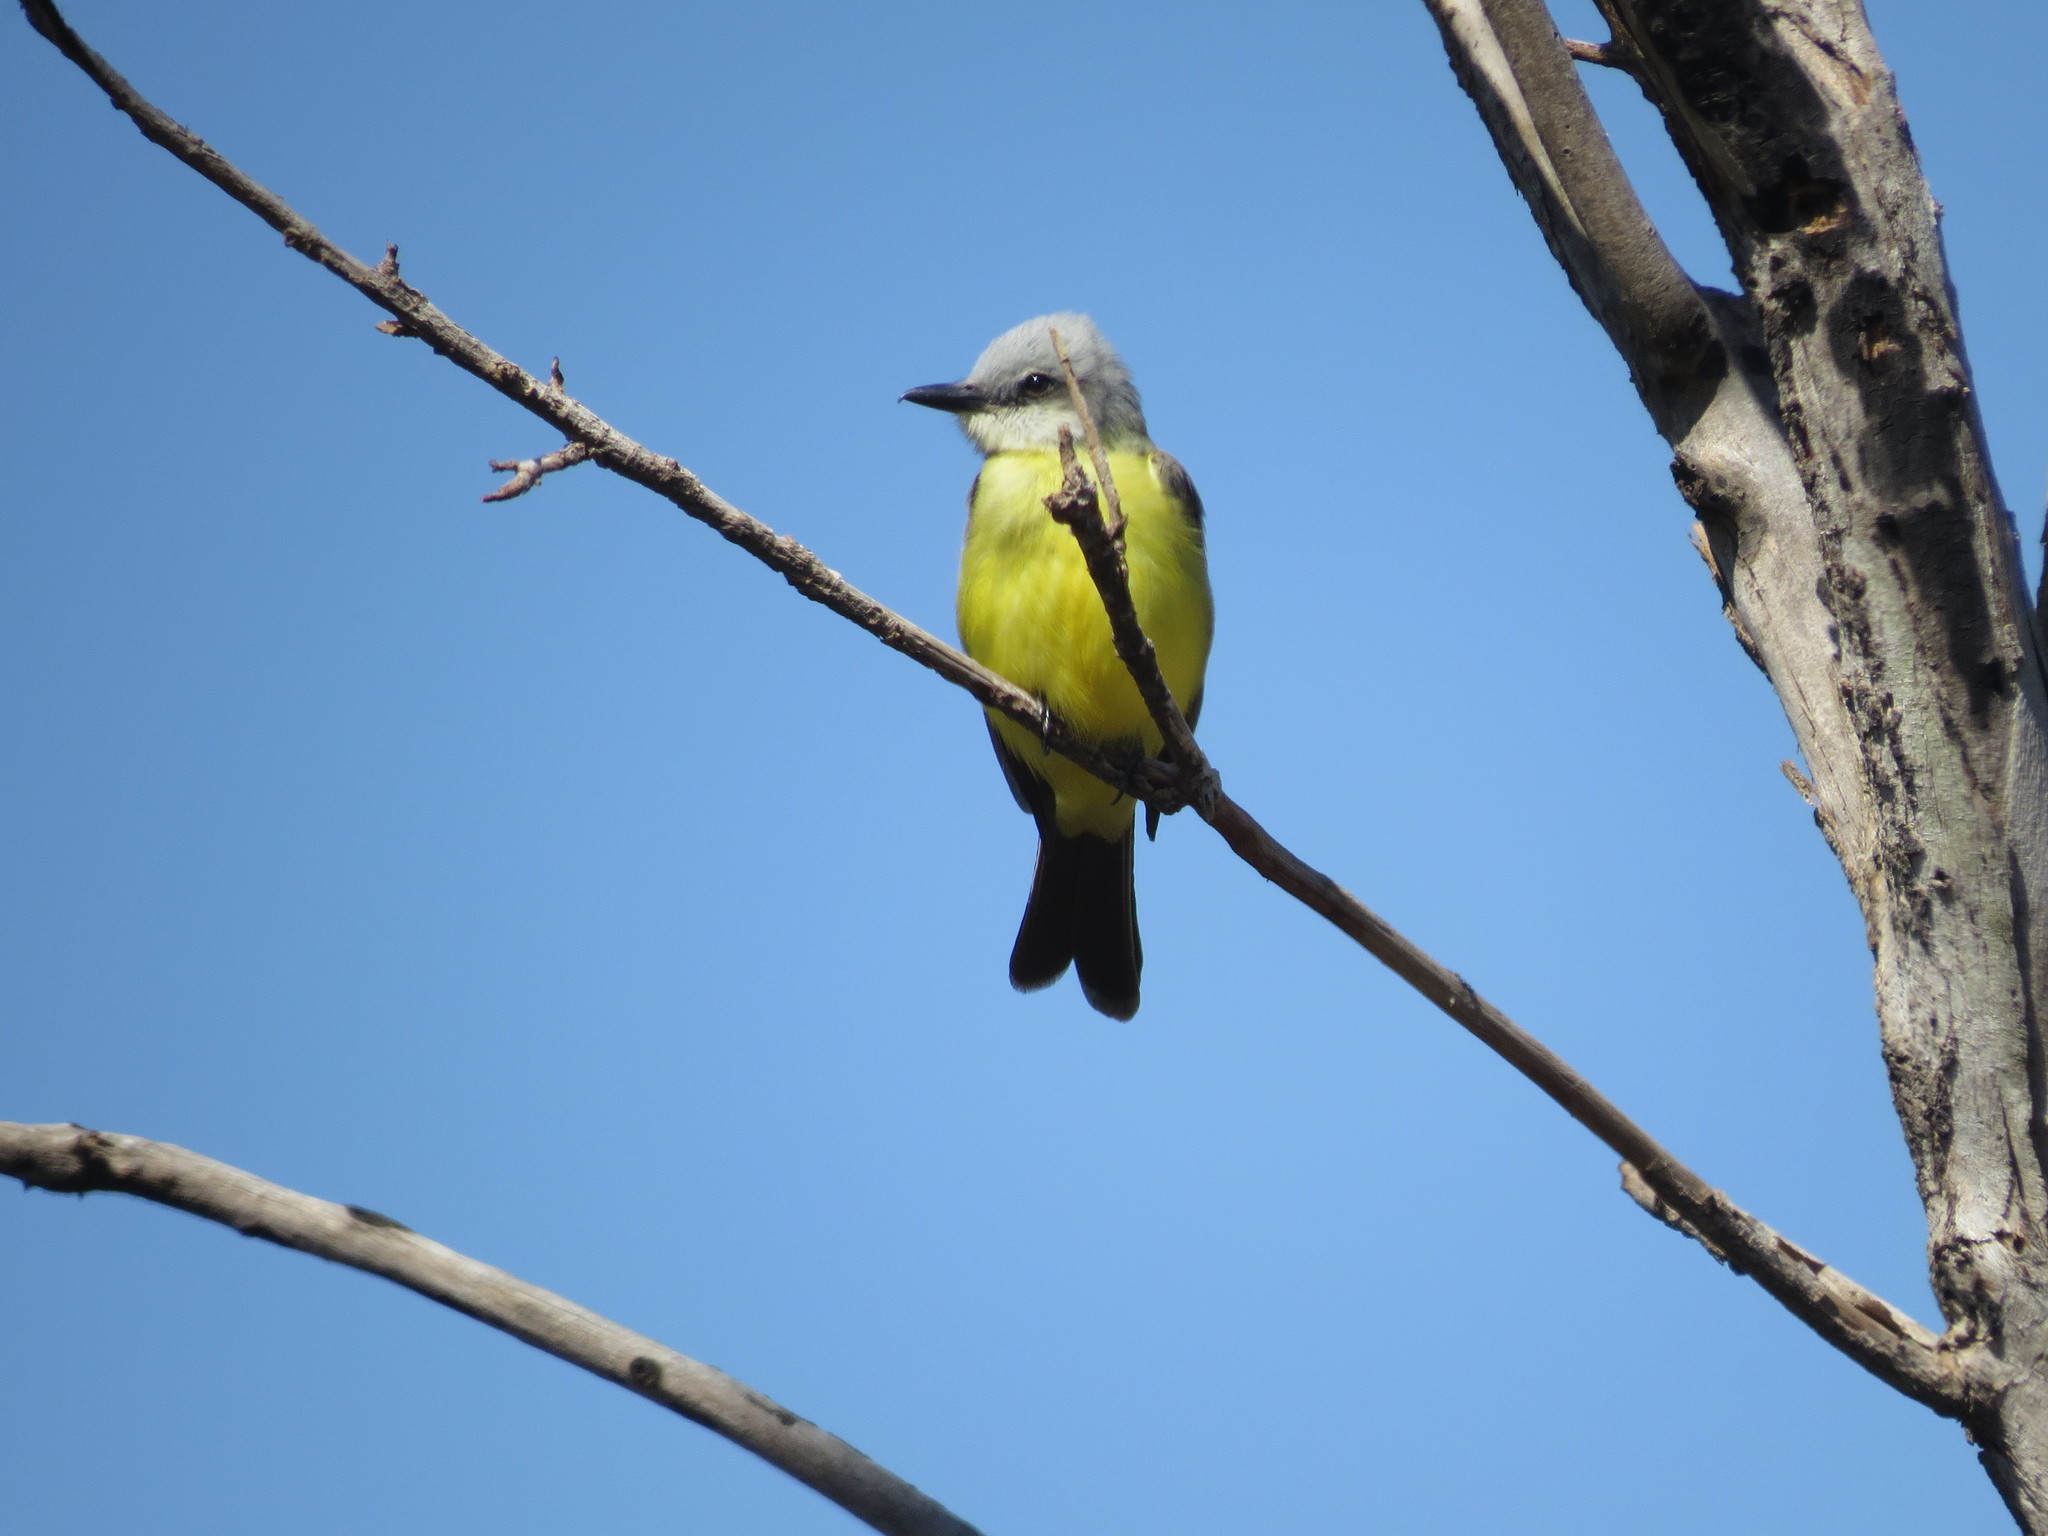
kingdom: Animalia
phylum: Chordata
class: Aves
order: Passeriformes
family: Tyrannidae
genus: Tyrannus
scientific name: Tyrannus melancholicus
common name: Tropical kingbird
